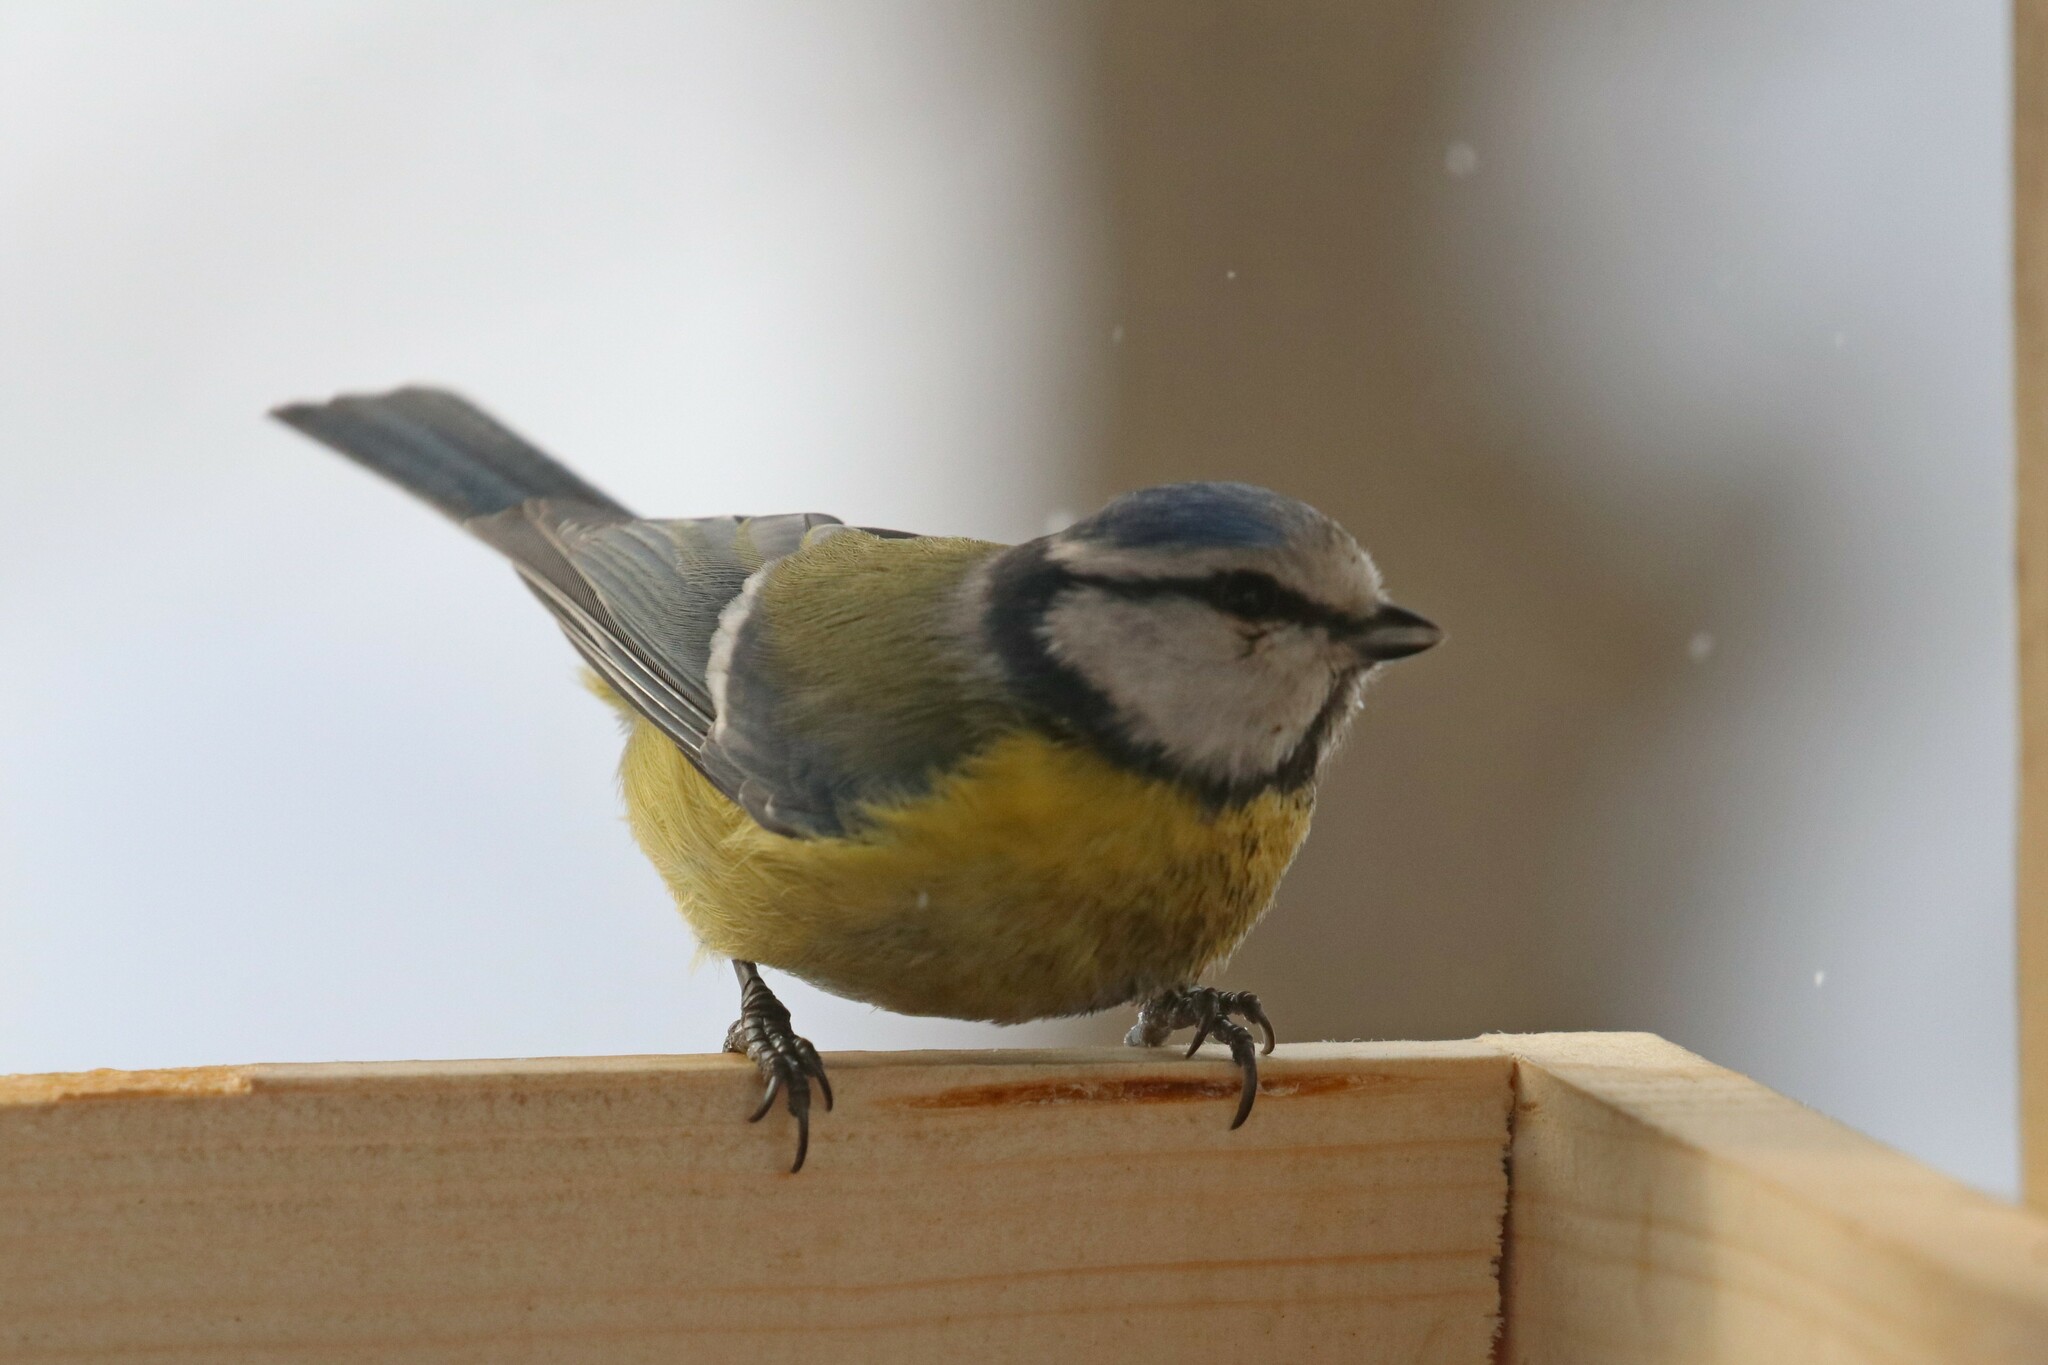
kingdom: Animalia
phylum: Chordata
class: Aves
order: Passeriformes
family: Paridae
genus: Cyanistes
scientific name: Cyanistes caeruleus
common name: Eurasian blue tit
